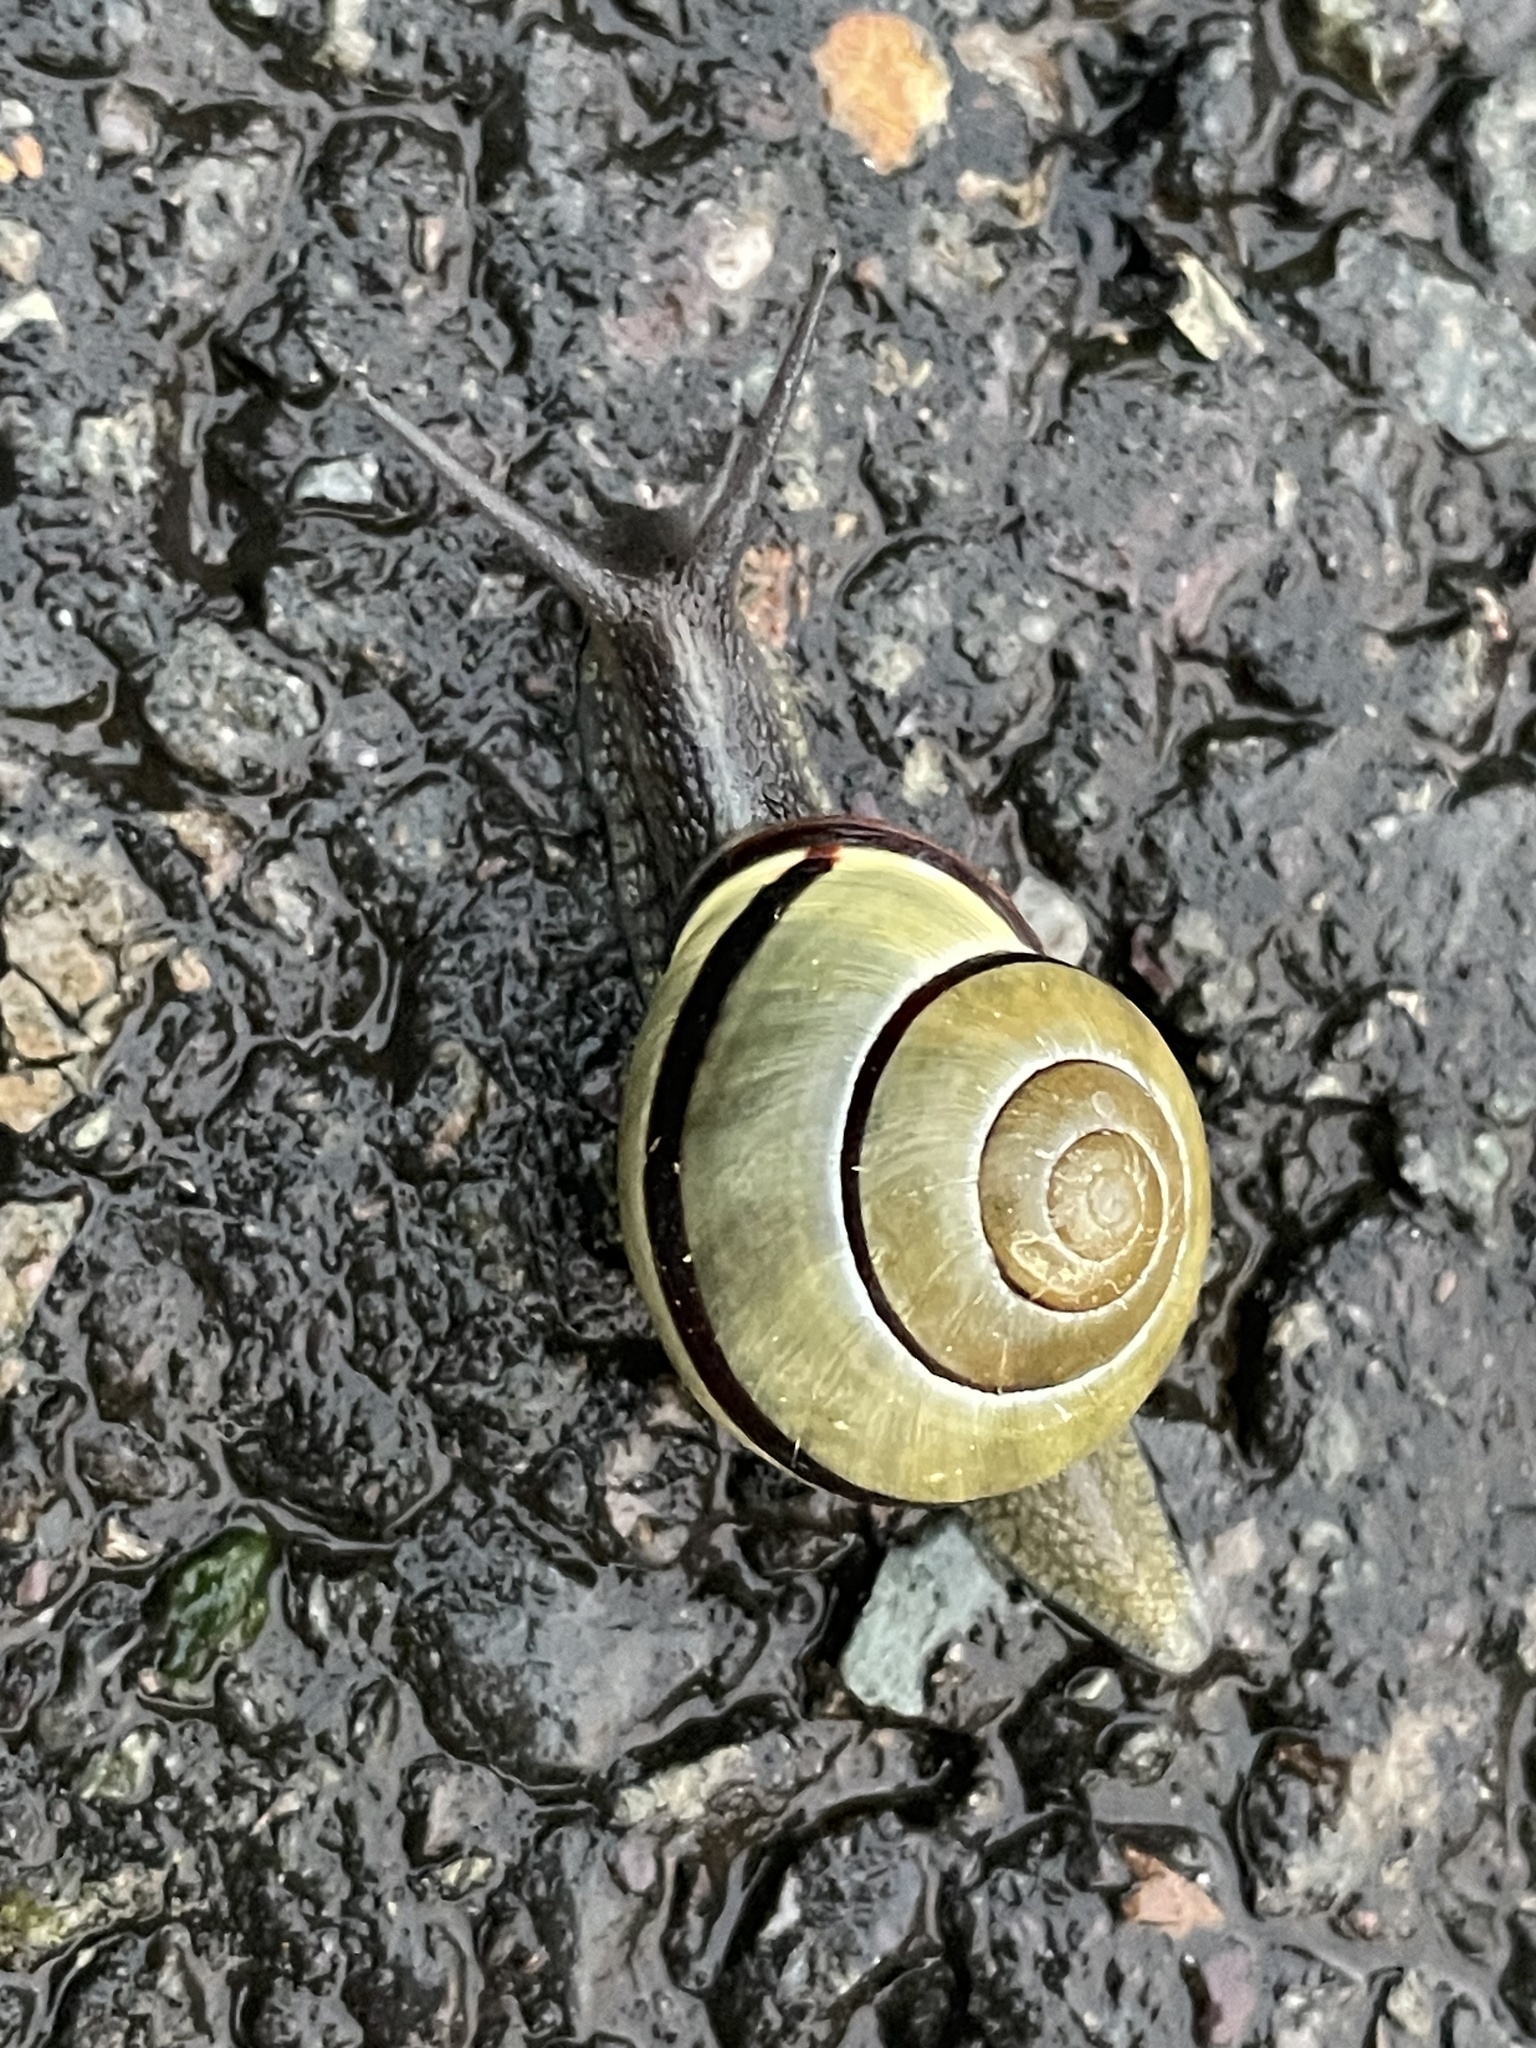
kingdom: Animalia
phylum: Mollusca
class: Gastropoda
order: Stylommatophora
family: Helicidae
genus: Cepaea
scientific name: Cepaea nemoralis
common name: Grovesnail
